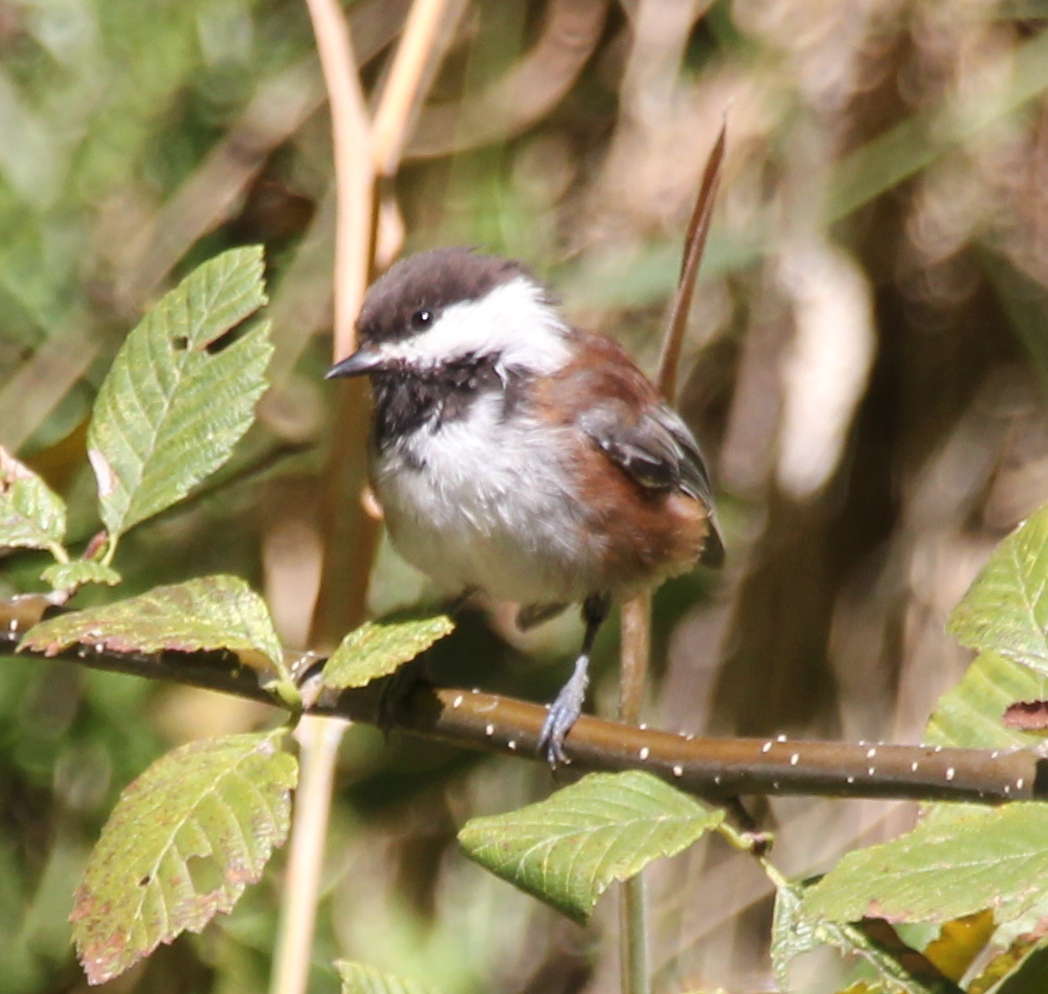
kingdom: Animalia
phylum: Chordata
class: Aves
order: Passeriformes
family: Paridae
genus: Poecile
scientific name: Poecile rufescens
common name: Chestnut-backed chickadee
